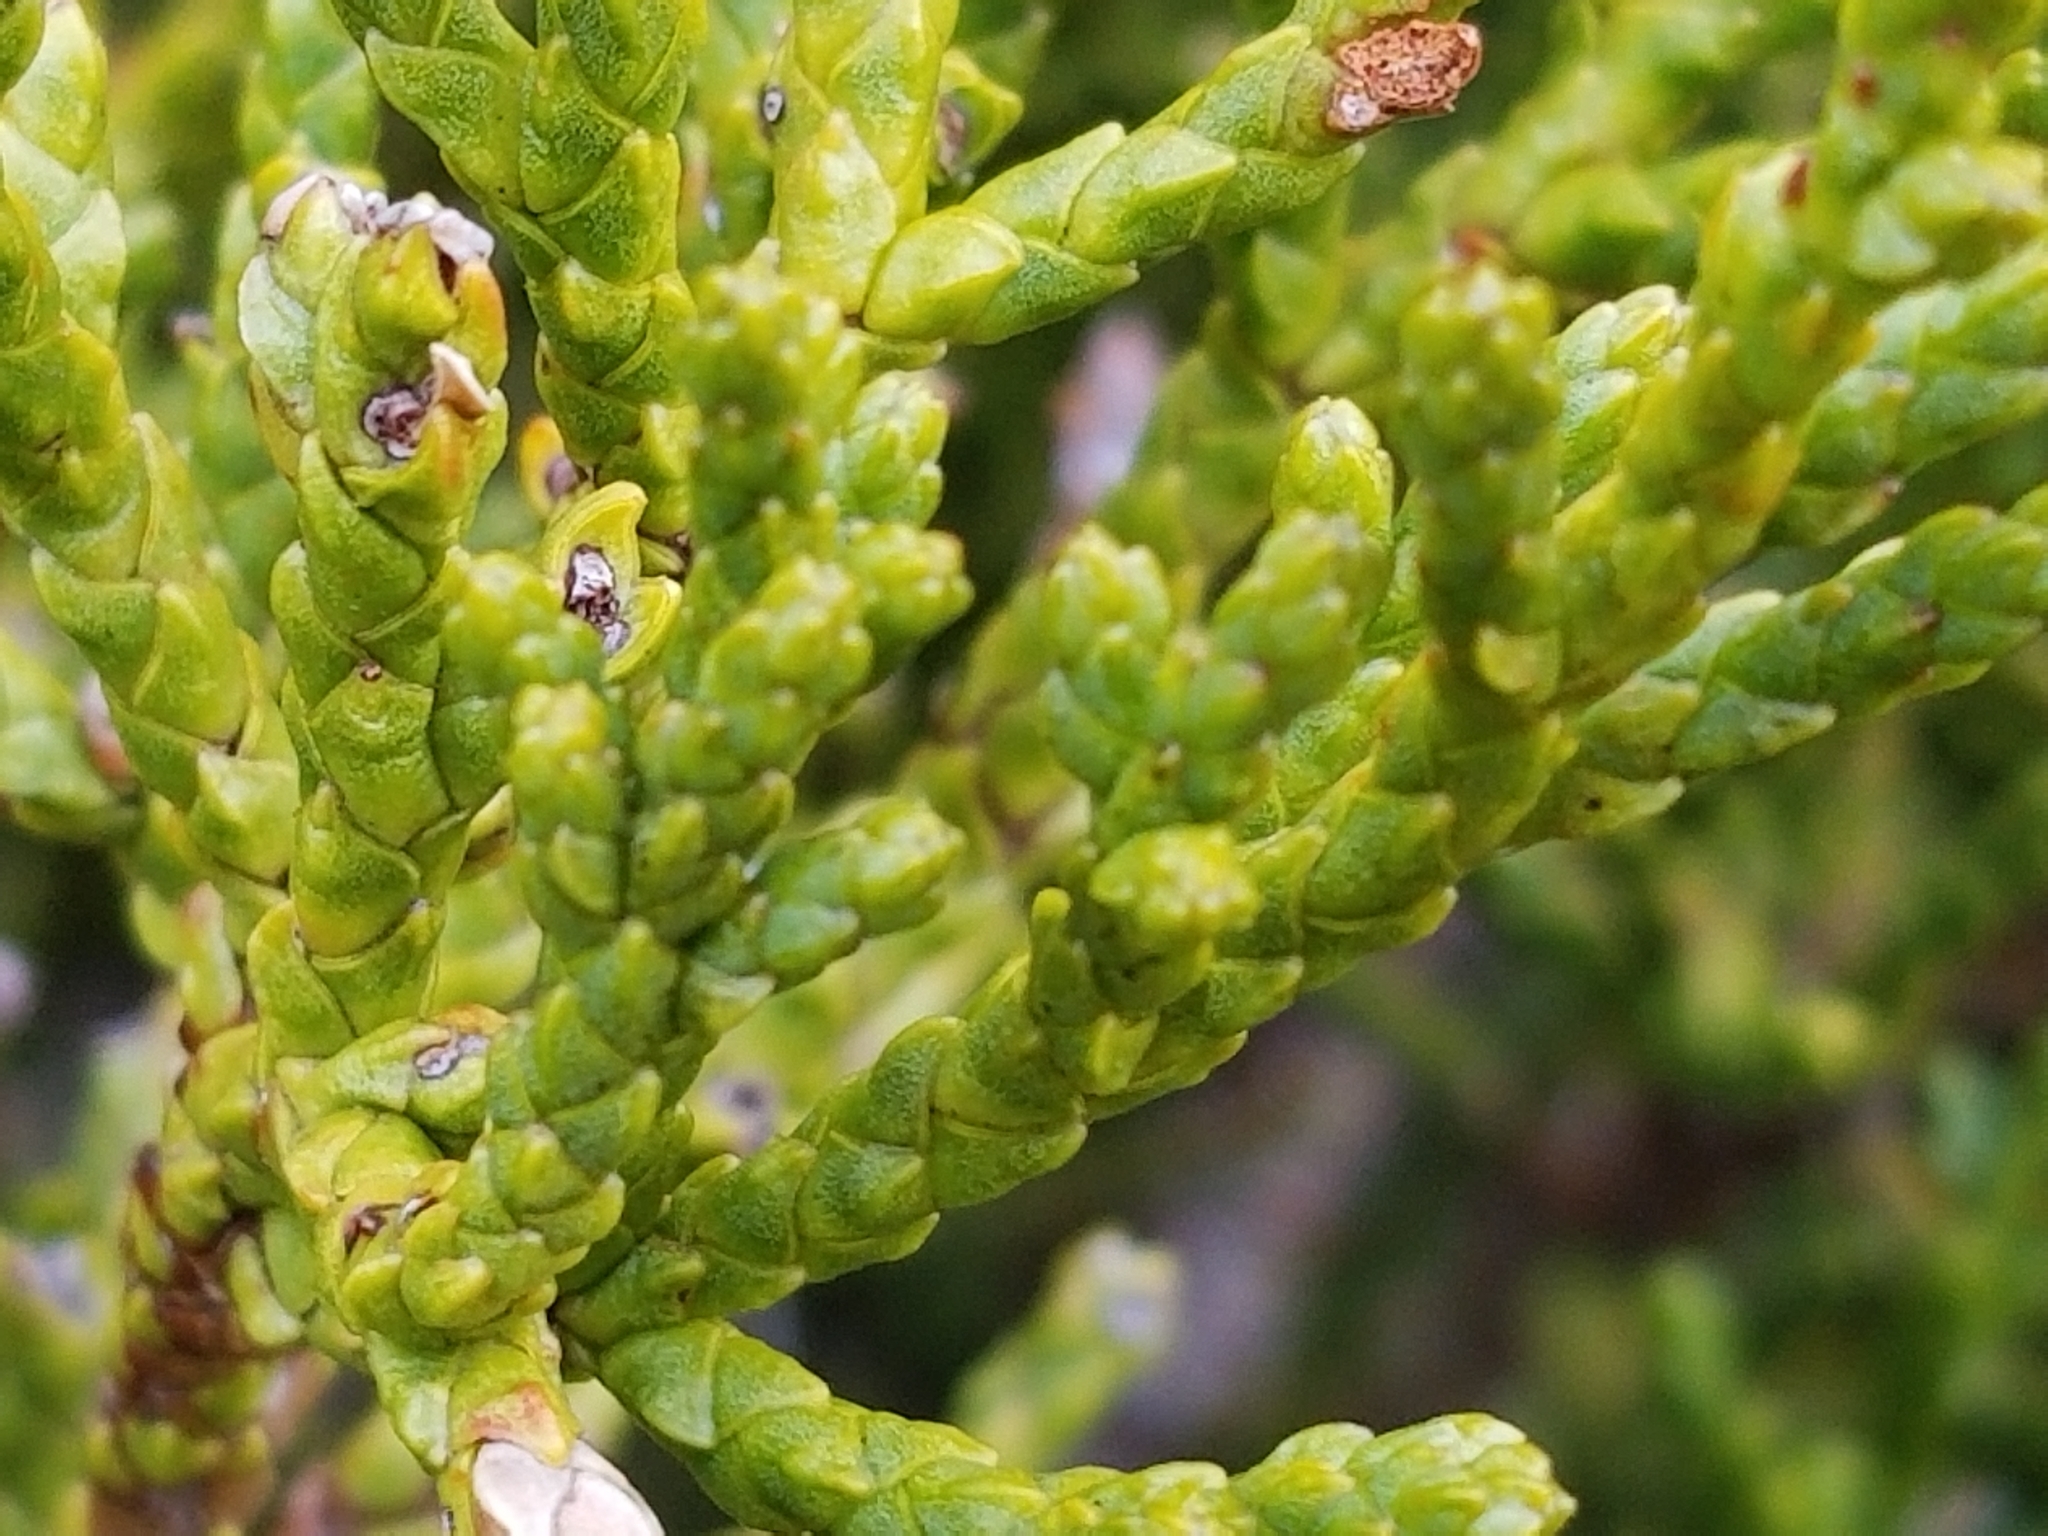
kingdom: Plantae
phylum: Tracheophyta
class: Pinopsida
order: Pinales
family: Podocarpaceae
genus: Halocarpus
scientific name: Halocarpus biformis
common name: Alpine tarwood
